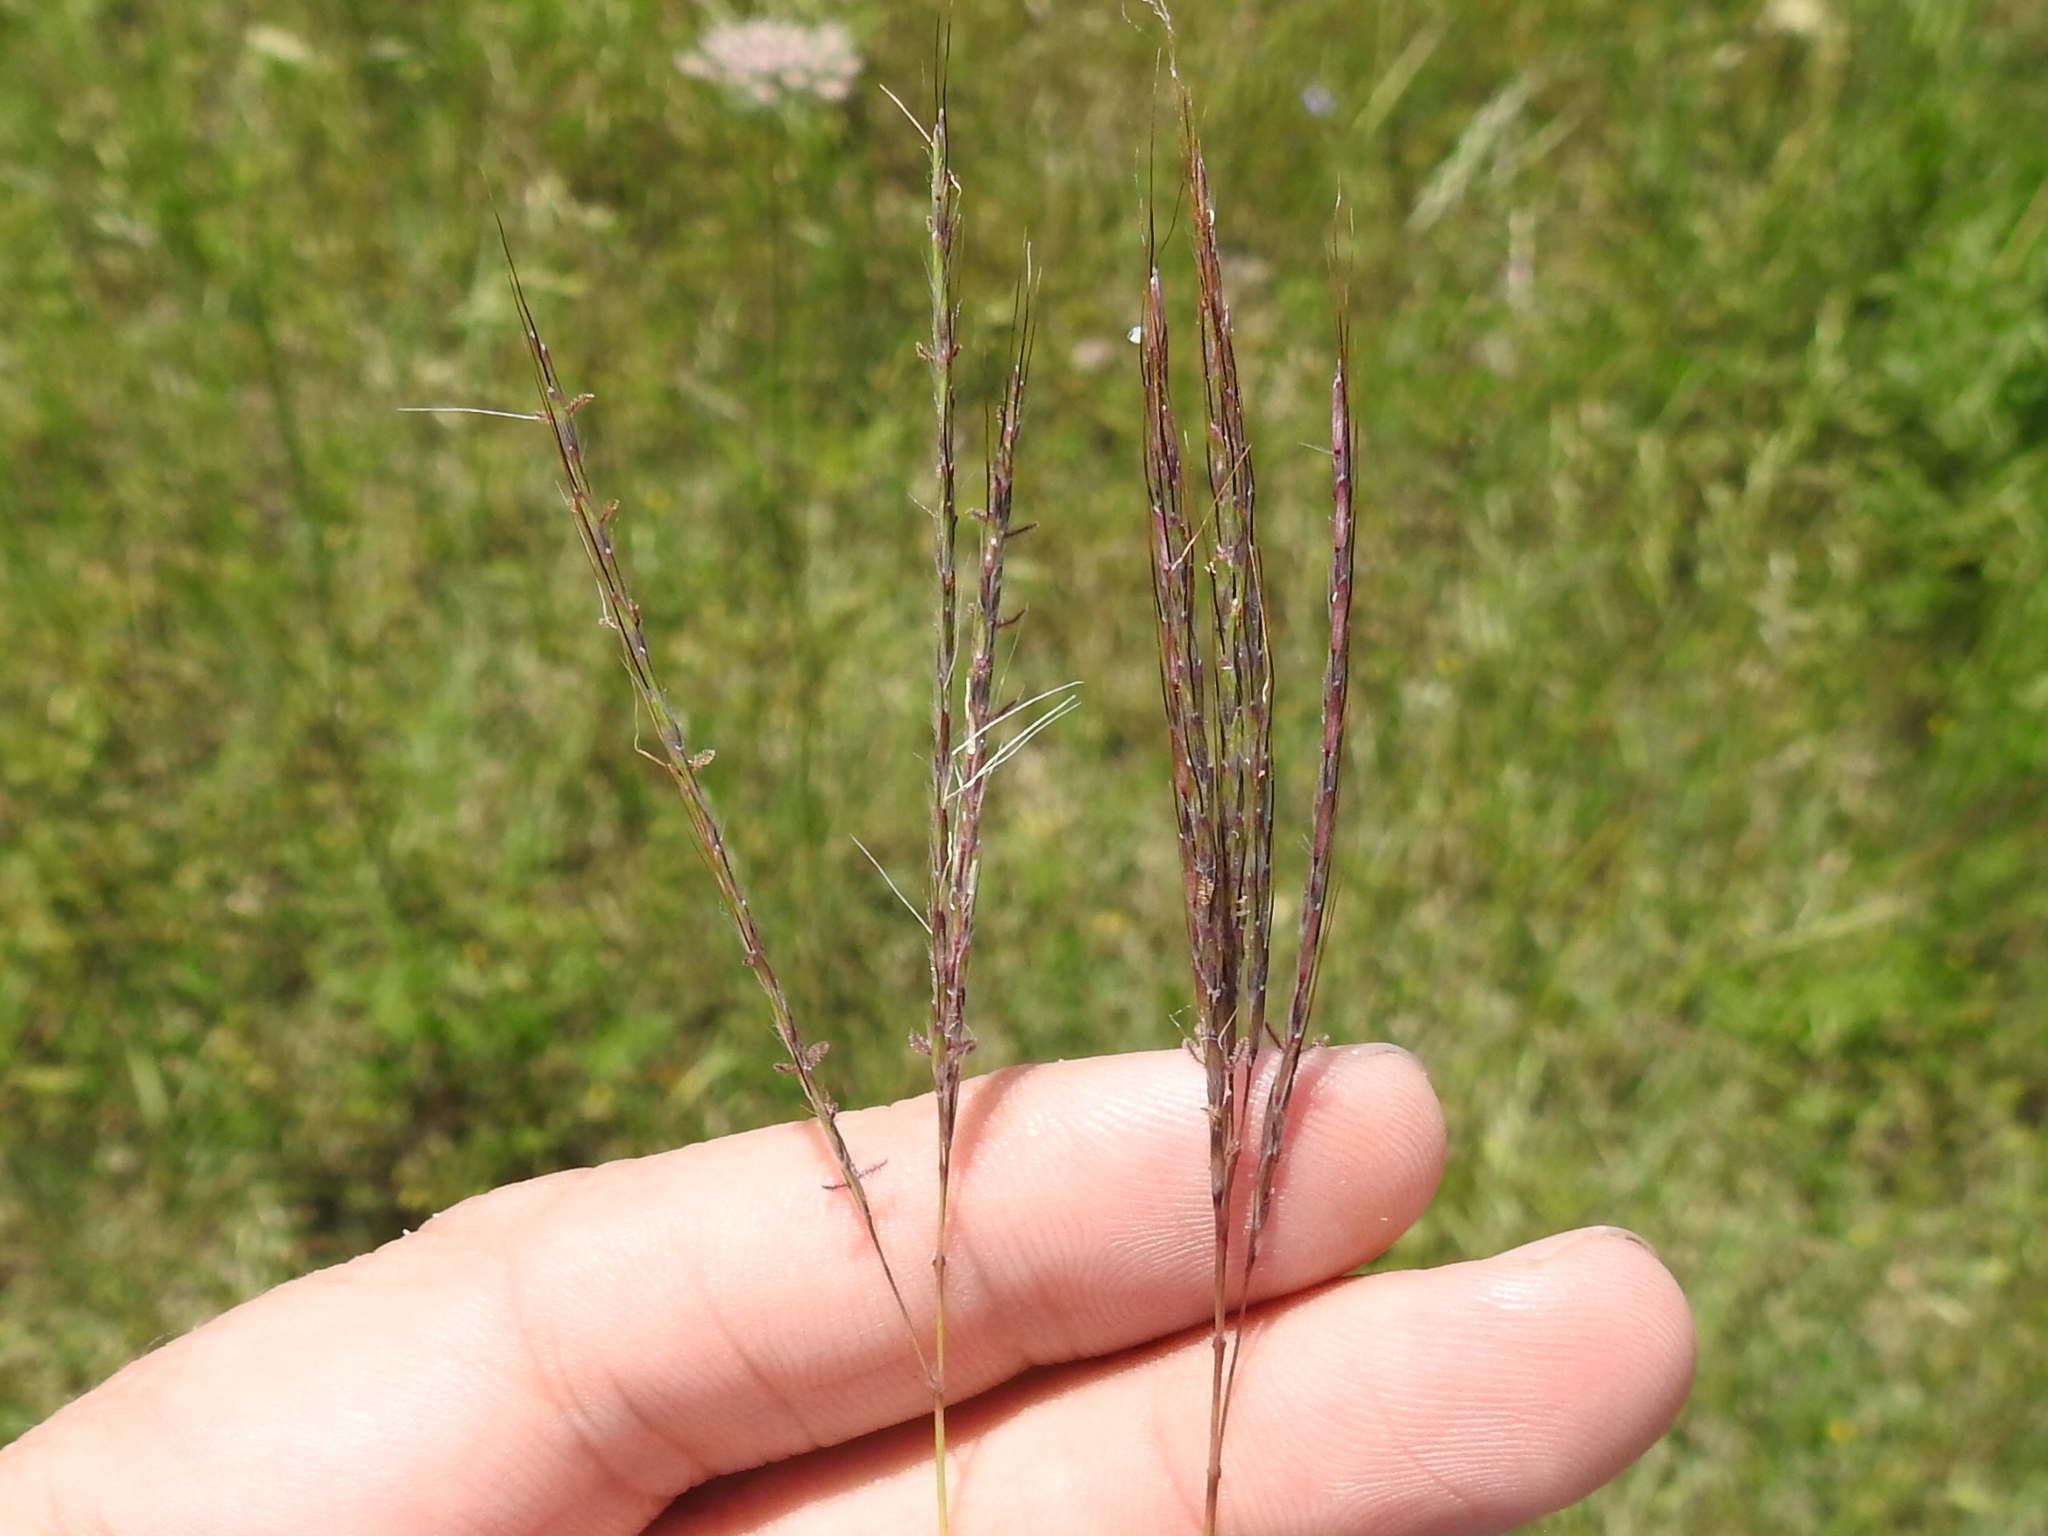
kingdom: Plantae
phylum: Tracheophyta
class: Liliopsida
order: Poales
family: Poaceae
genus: Bothriochloa
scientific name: Bothriochloa ischaemum
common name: Yellow bluestem
